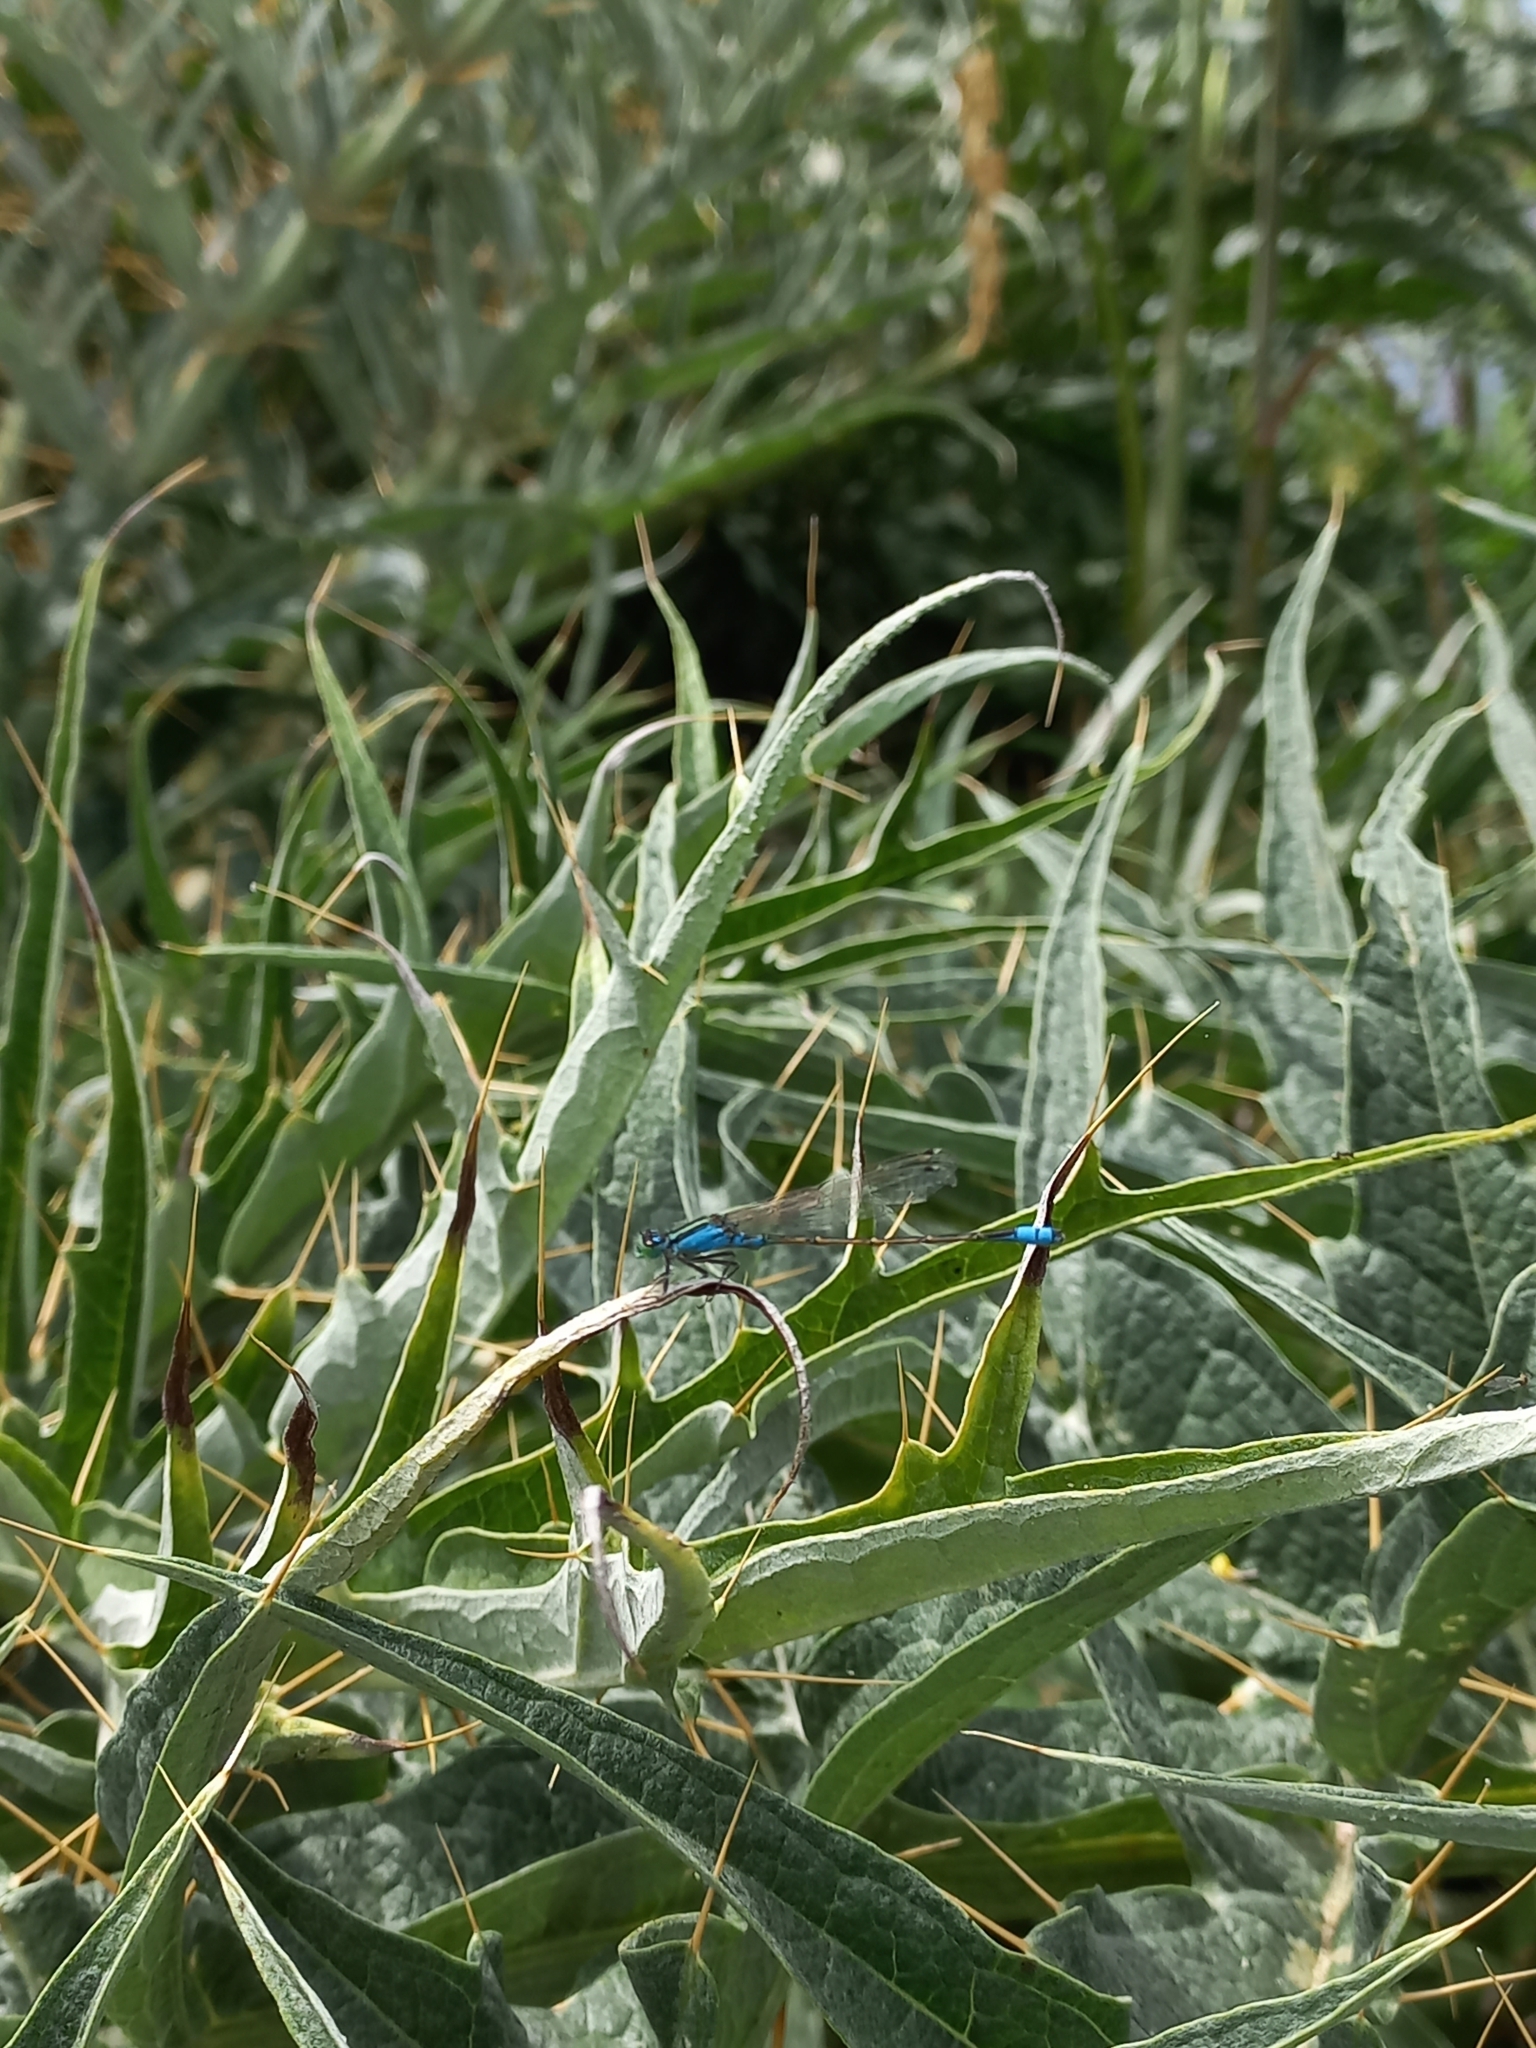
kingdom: Animalia
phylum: Arthropoda
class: Insecta
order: Odonata
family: Coenagrionidae
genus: Ischnura
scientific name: Ischnura fluviatilis
